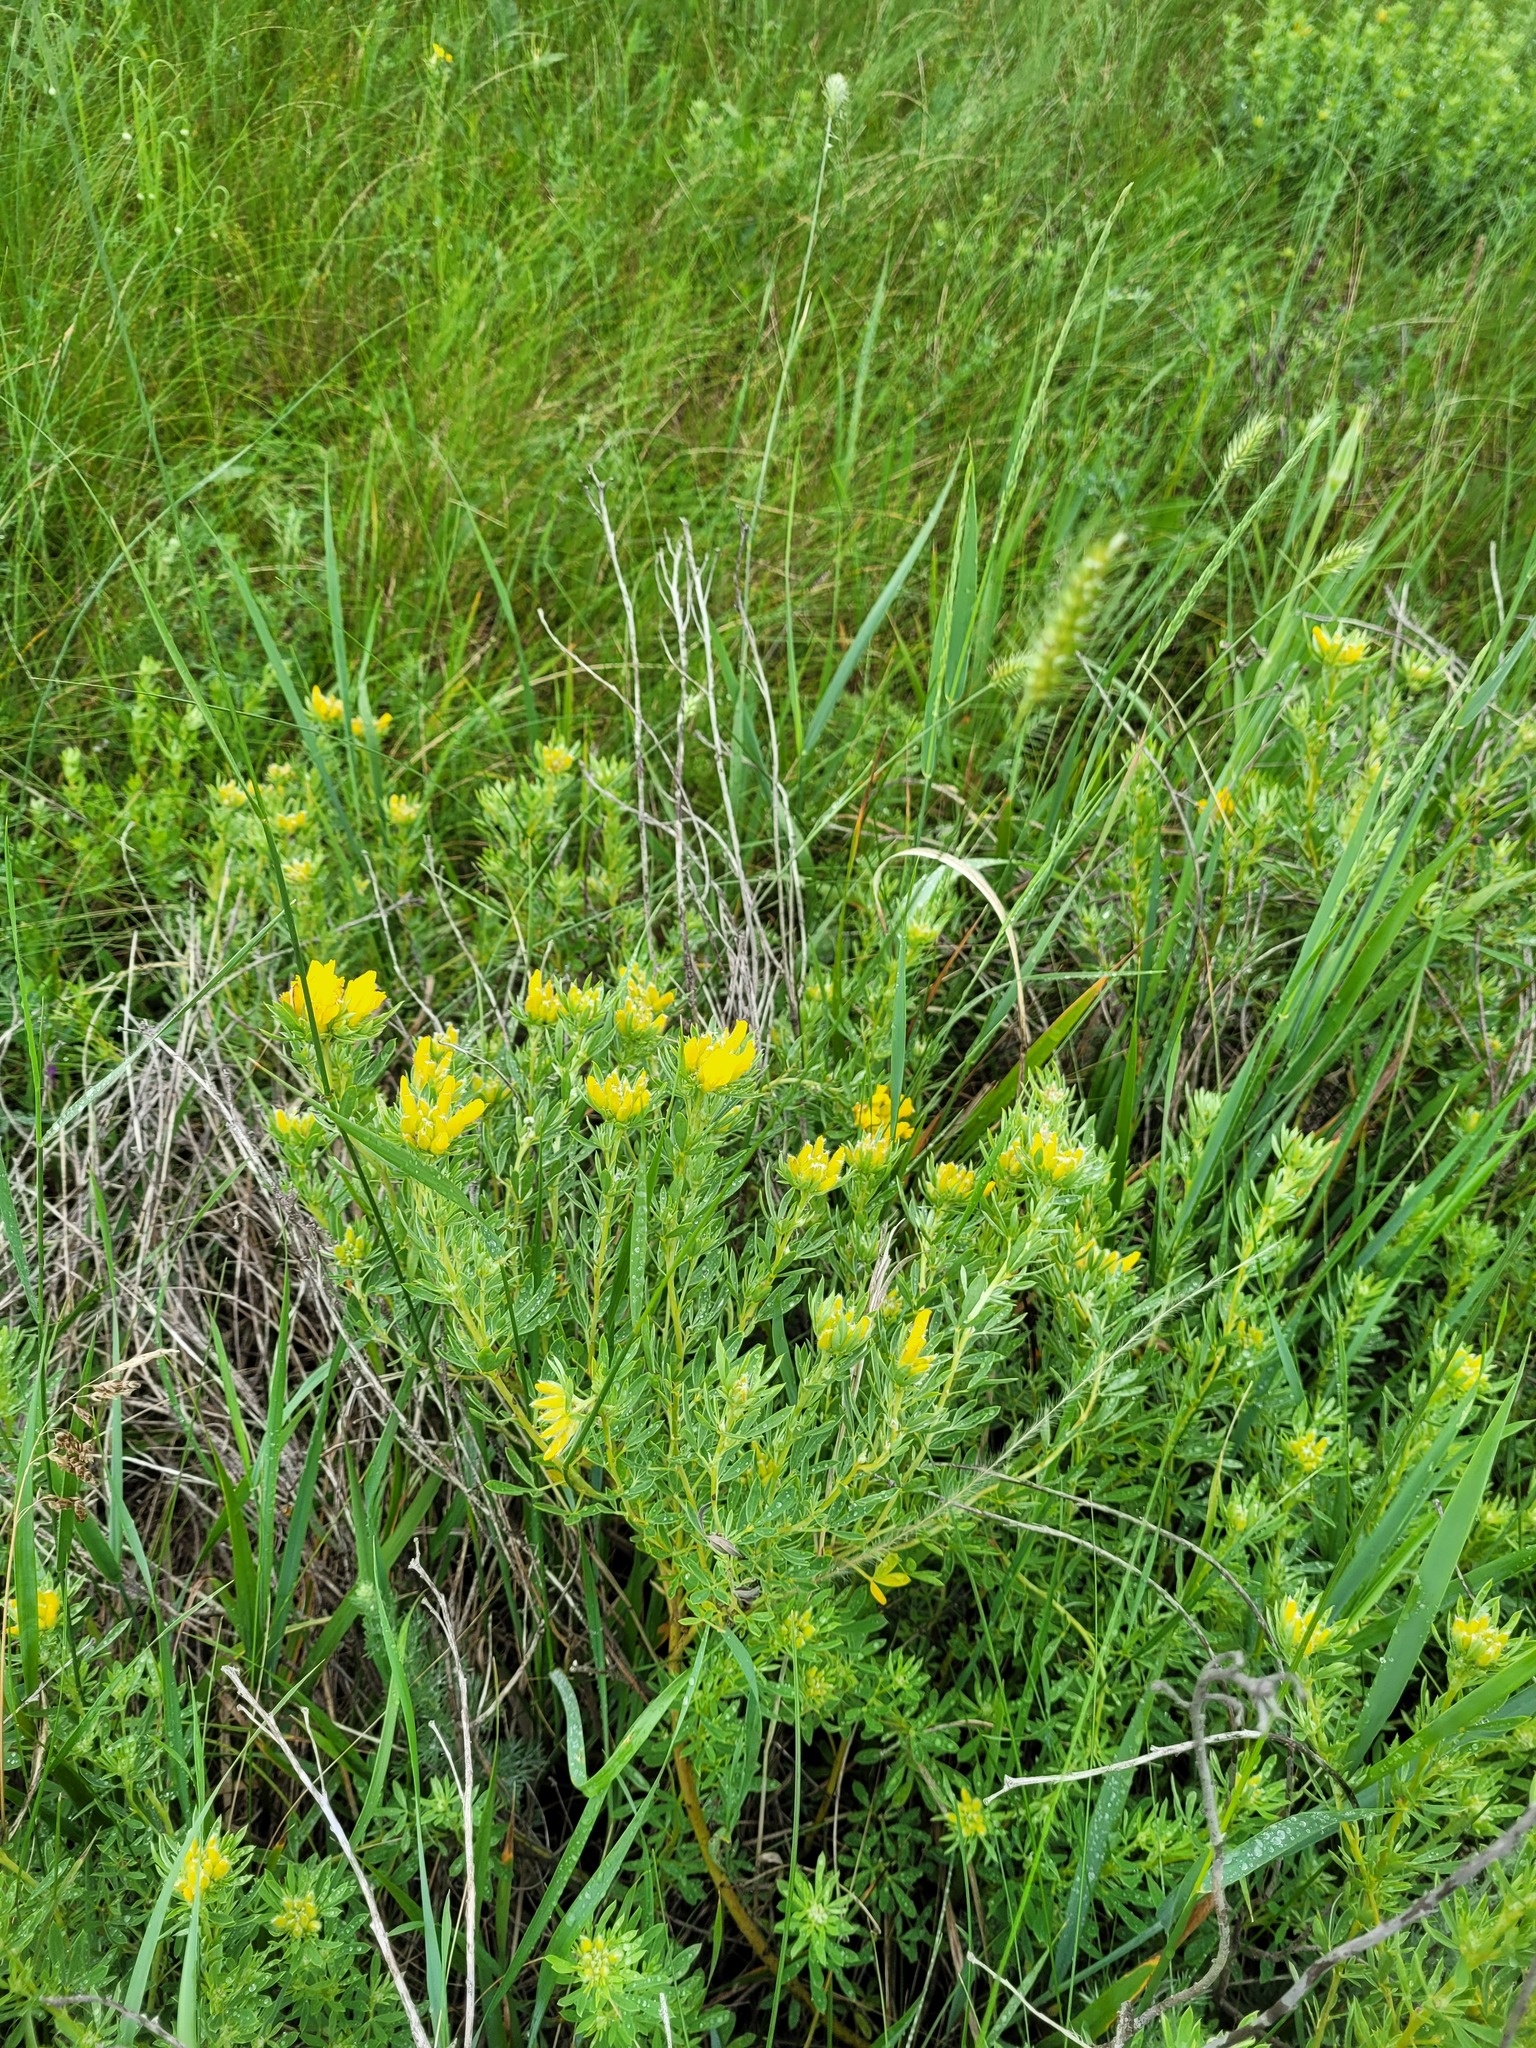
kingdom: Plantae
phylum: Tracheophyta
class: Magnoliopsida
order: Fabales
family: Fabaceae
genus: Chamaecytisus
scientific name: Chamaecytisus austriacus
